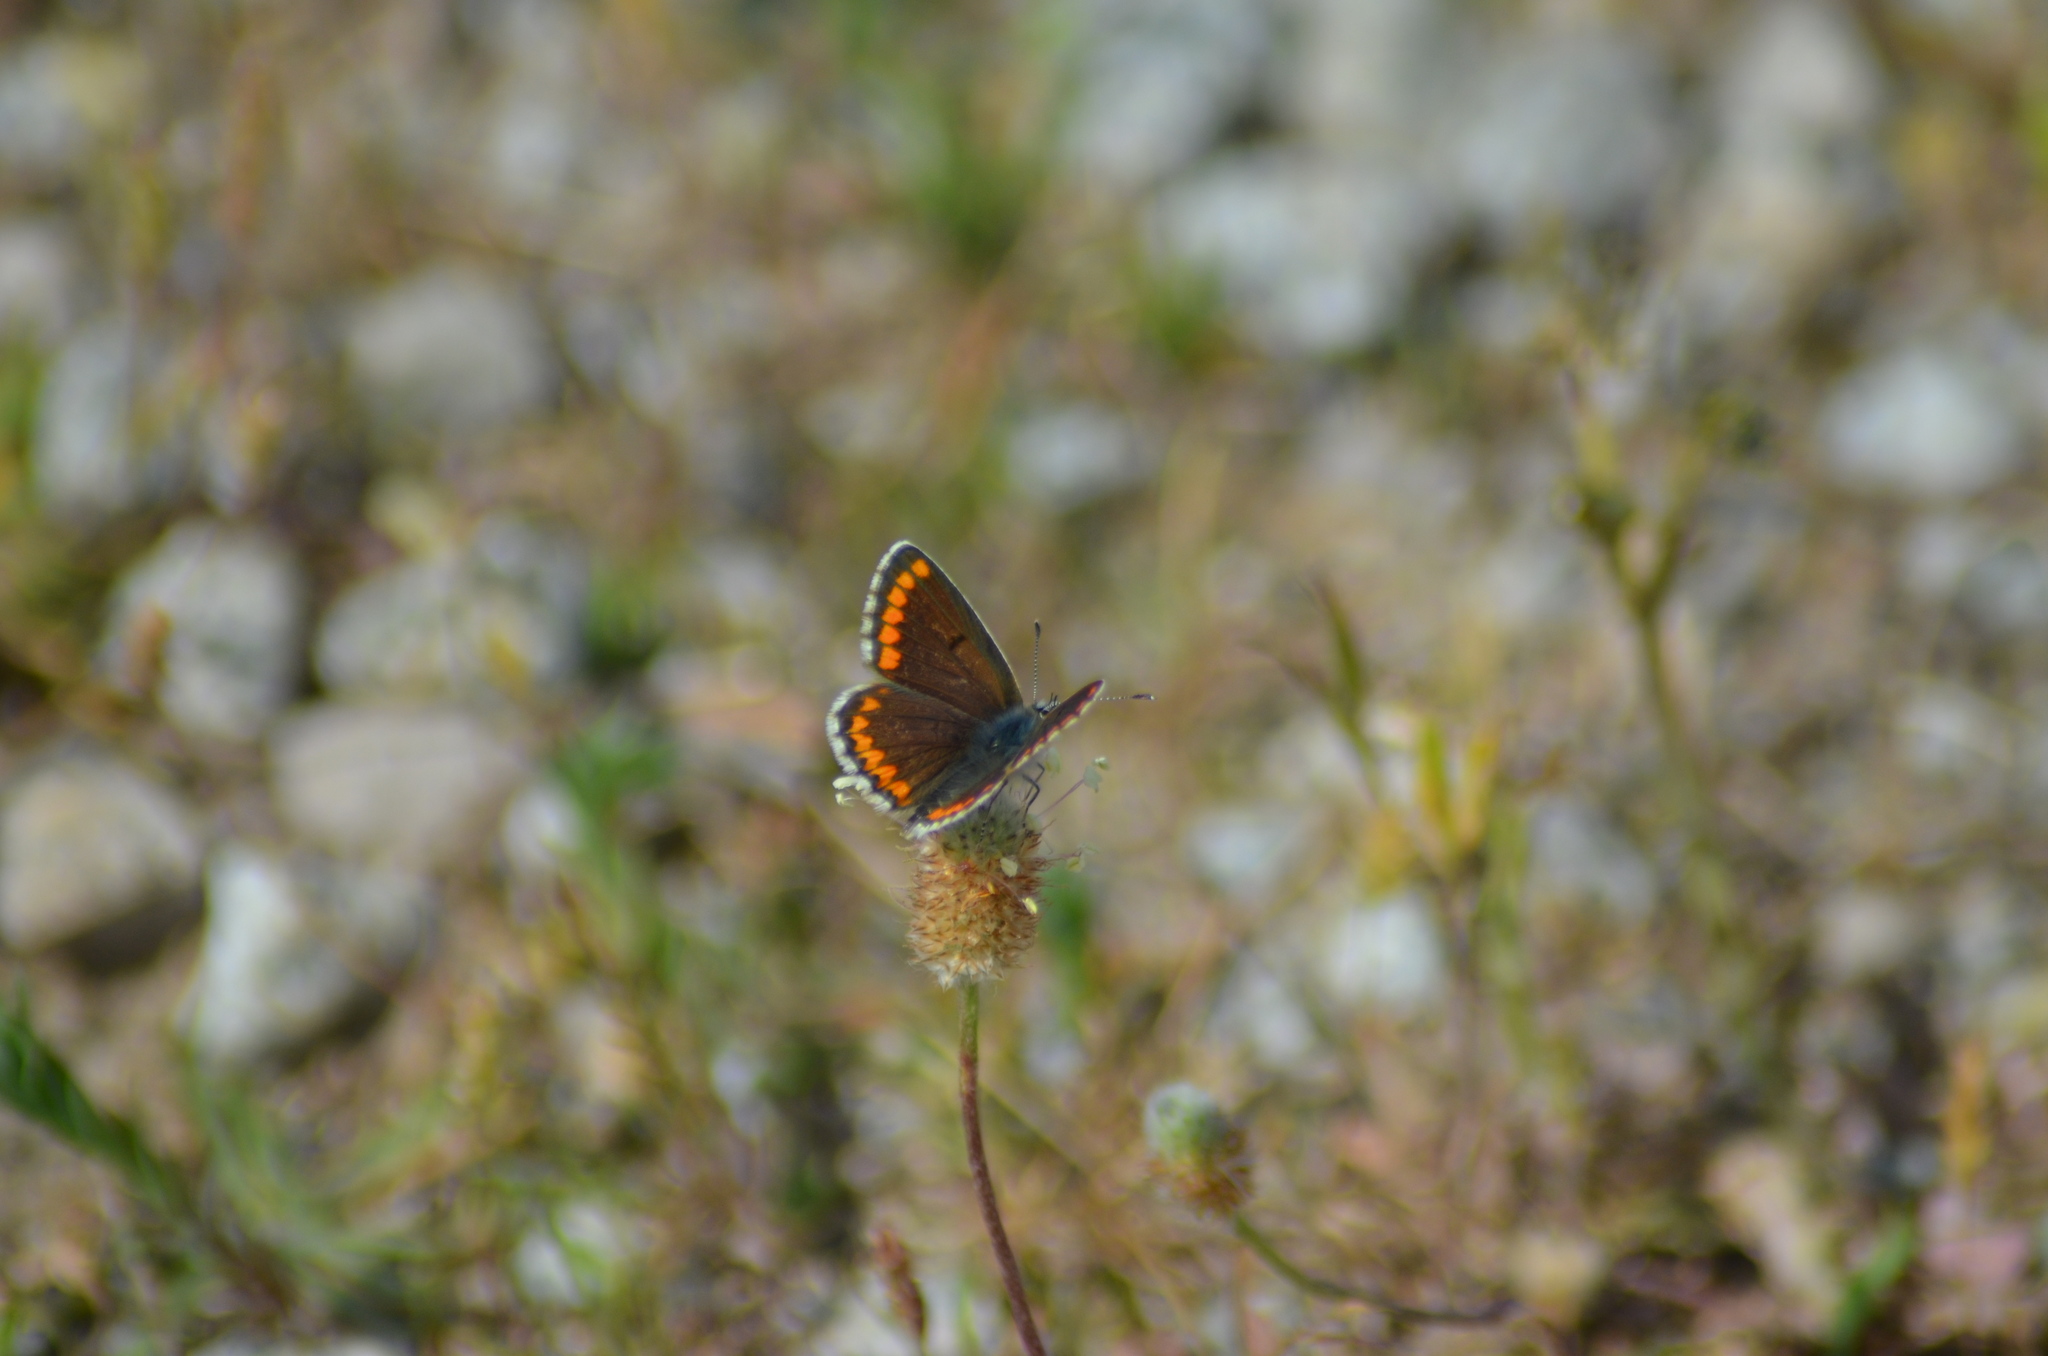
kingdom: Animalia
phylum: Arthropoda
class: Insecta
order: Lepidoptera
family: Lycaenidae
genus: Aricia
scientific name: Aricia cramera
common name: Eschscholtz´s brown  argus
